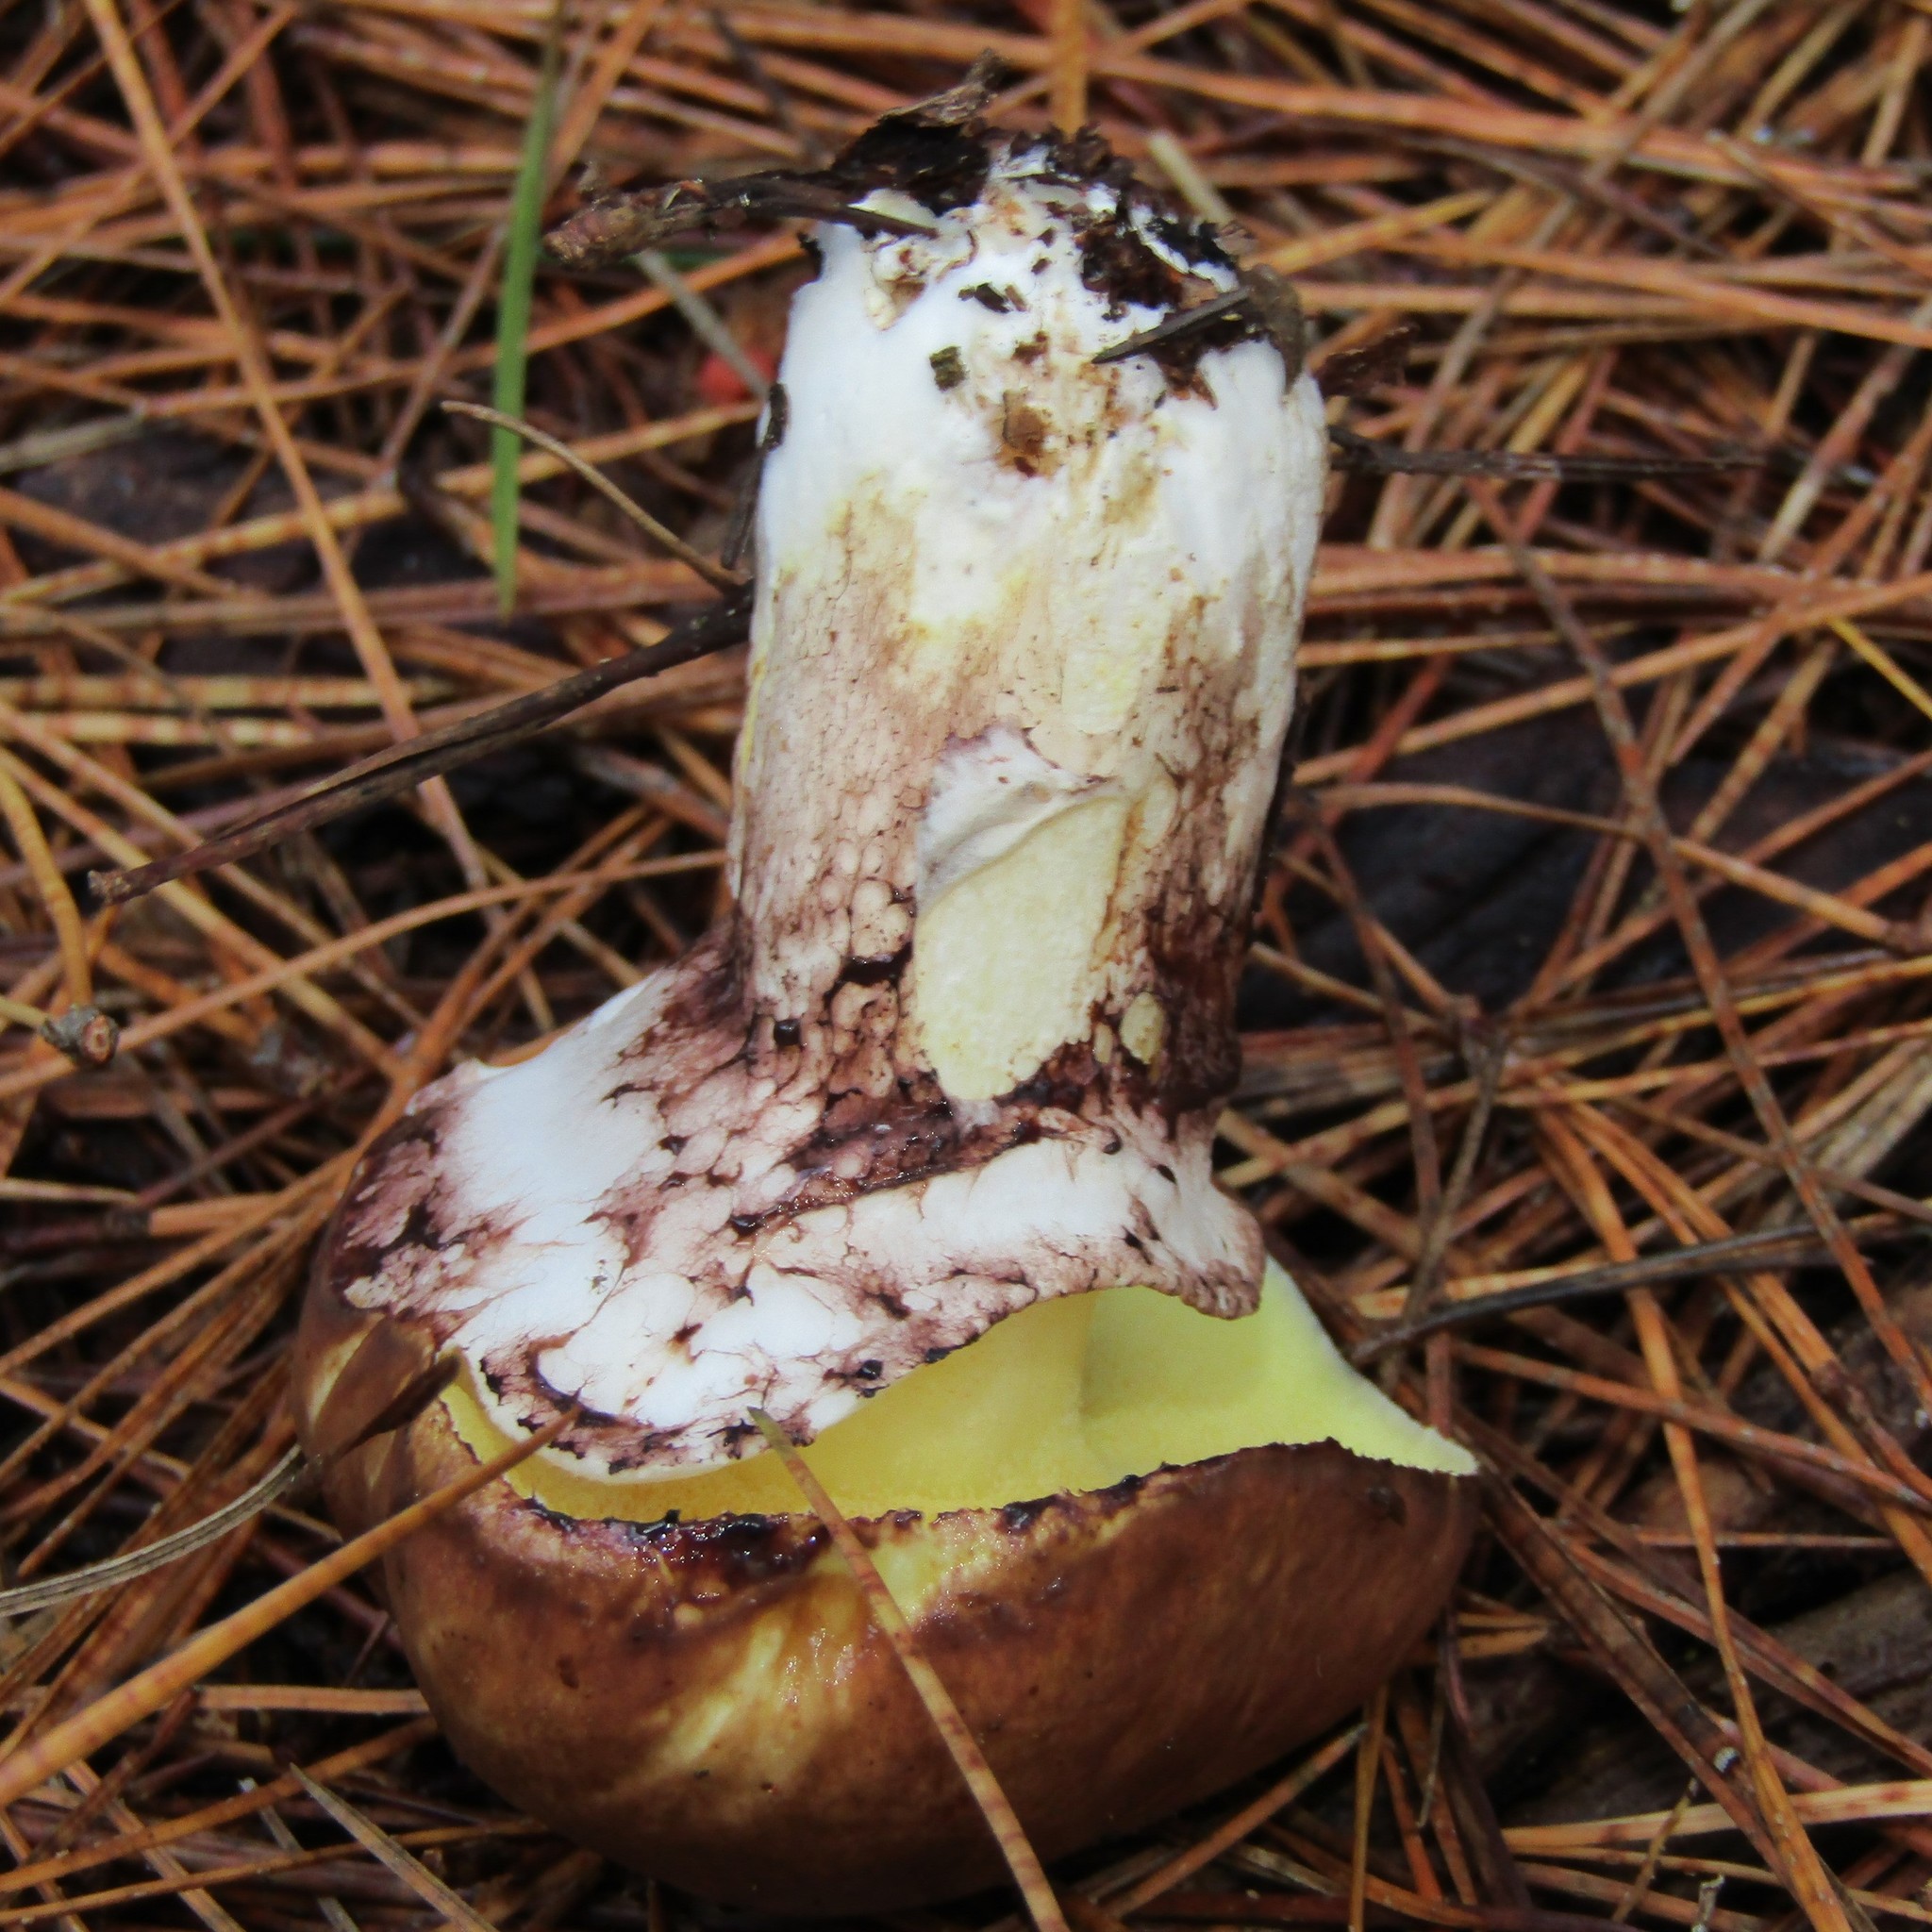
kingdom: Fungi
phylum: Basidiomycota
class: Agaricomycetes
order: Boletales
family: Suillaceae
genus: Suillus
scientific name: Suillus luteus
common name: Slippery jack
